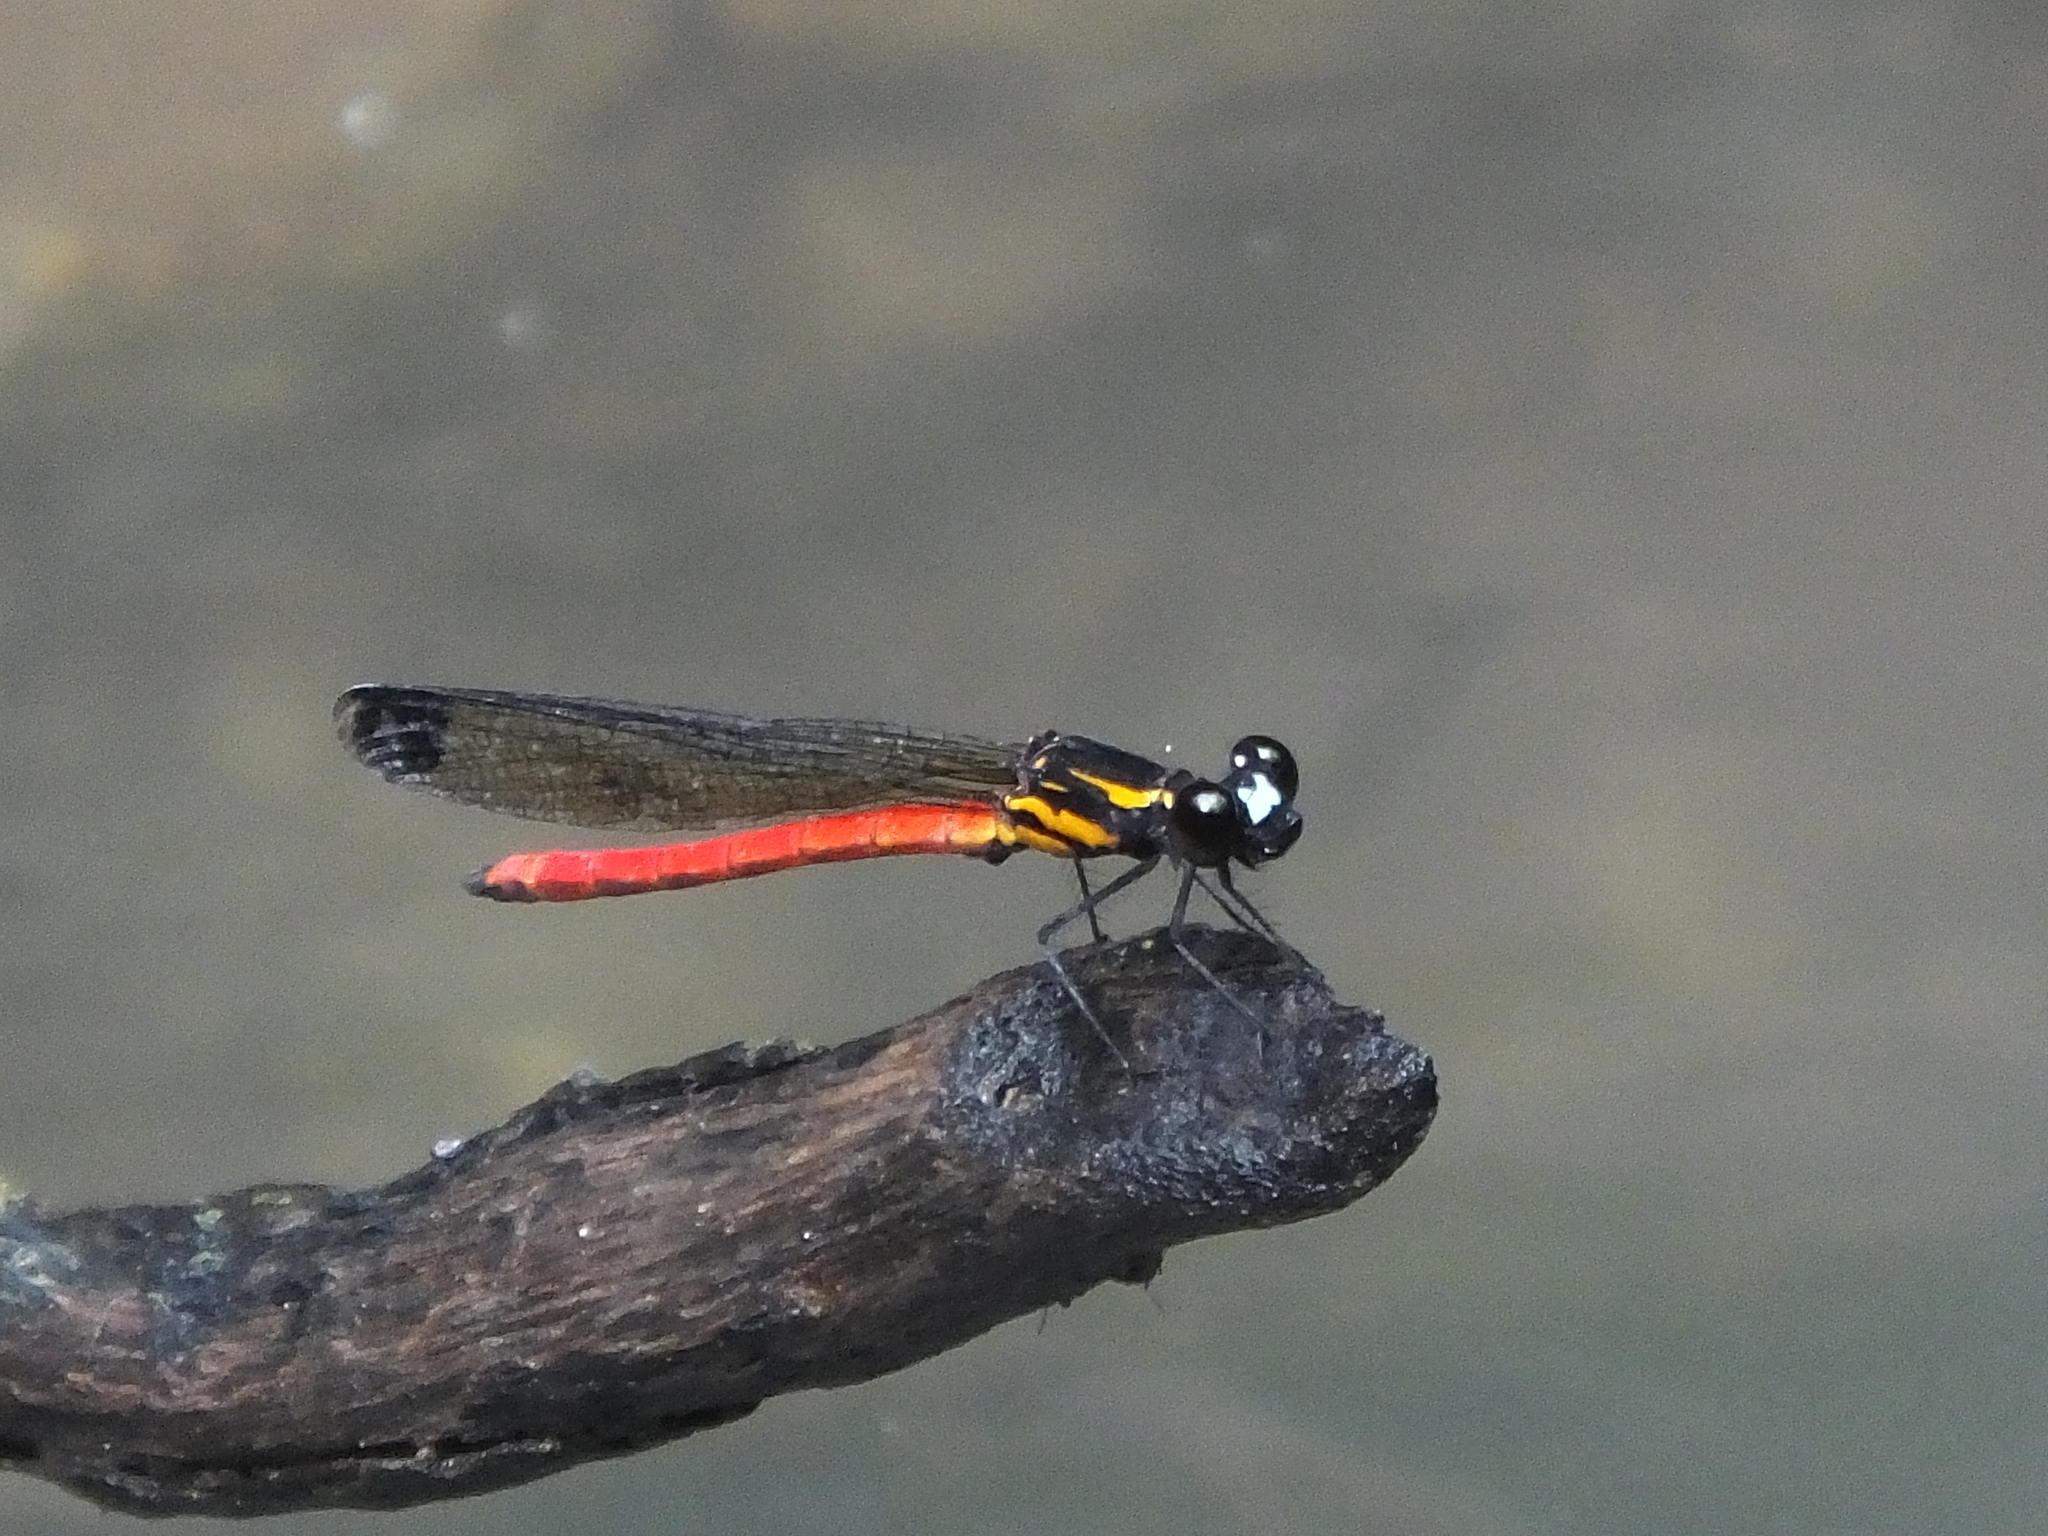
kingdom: Animalia
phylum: Arthropoda
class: Insecta
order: Odonata
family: Chlorocyphidae
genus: Libellago
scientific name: Libellago rufescens
